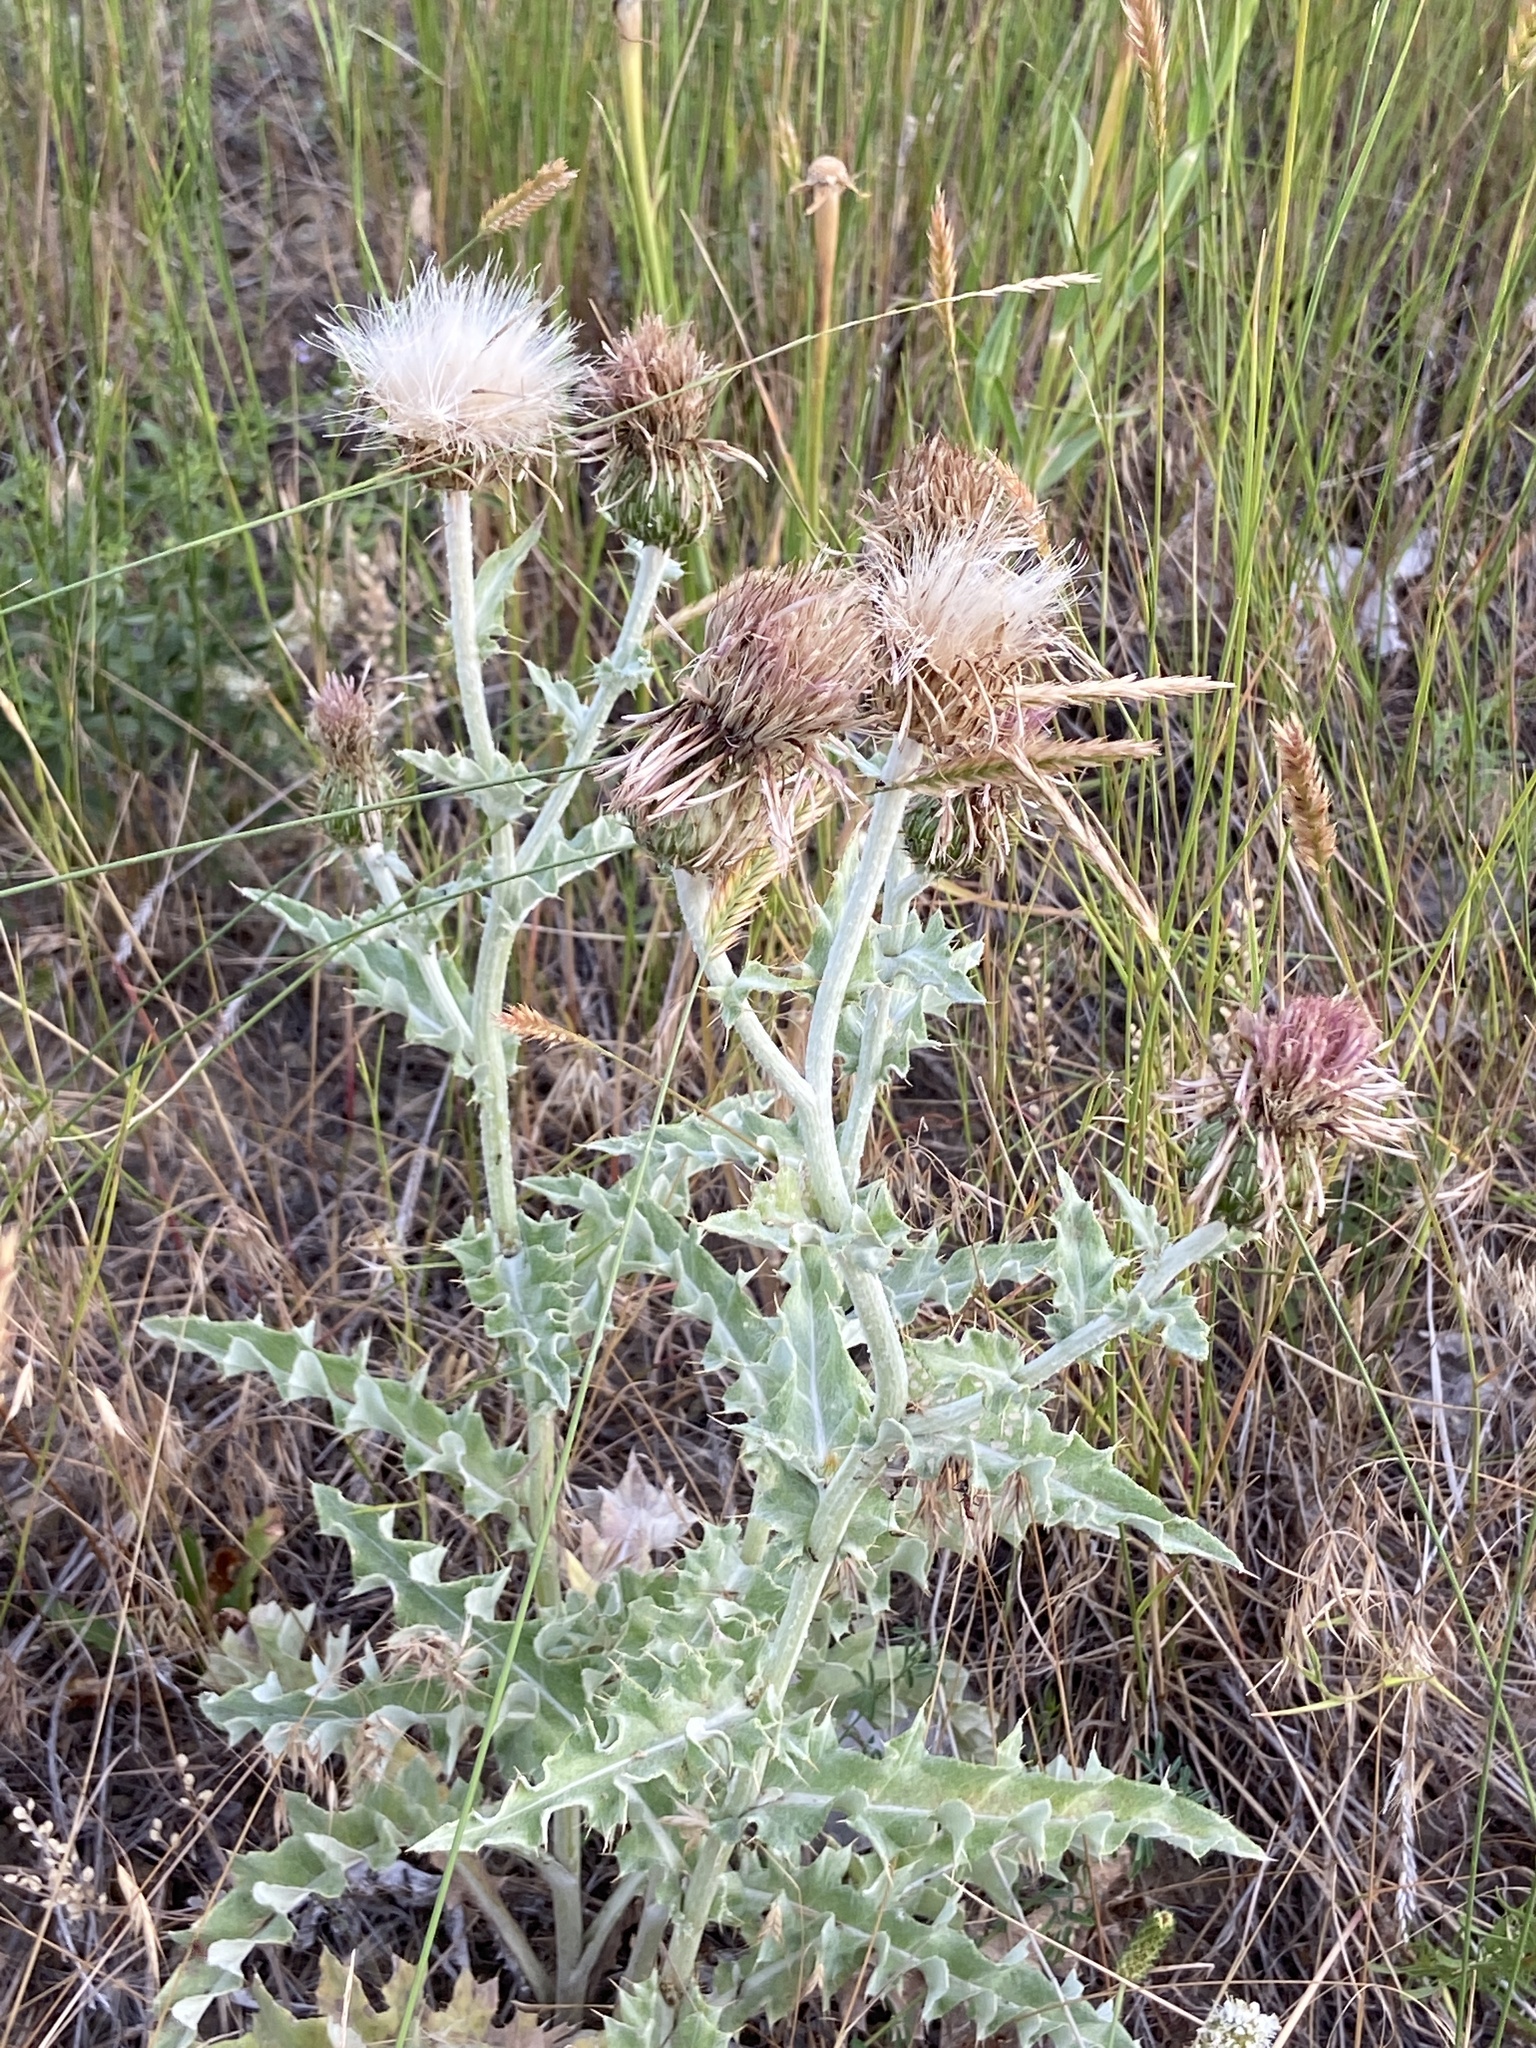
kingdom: Plantae
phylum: Tracheophyta
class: Magnoliopsida
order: Asterales
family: Asteraceae
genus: Cirsium
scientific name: Cirsium undulatum
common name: Pasture thistle
